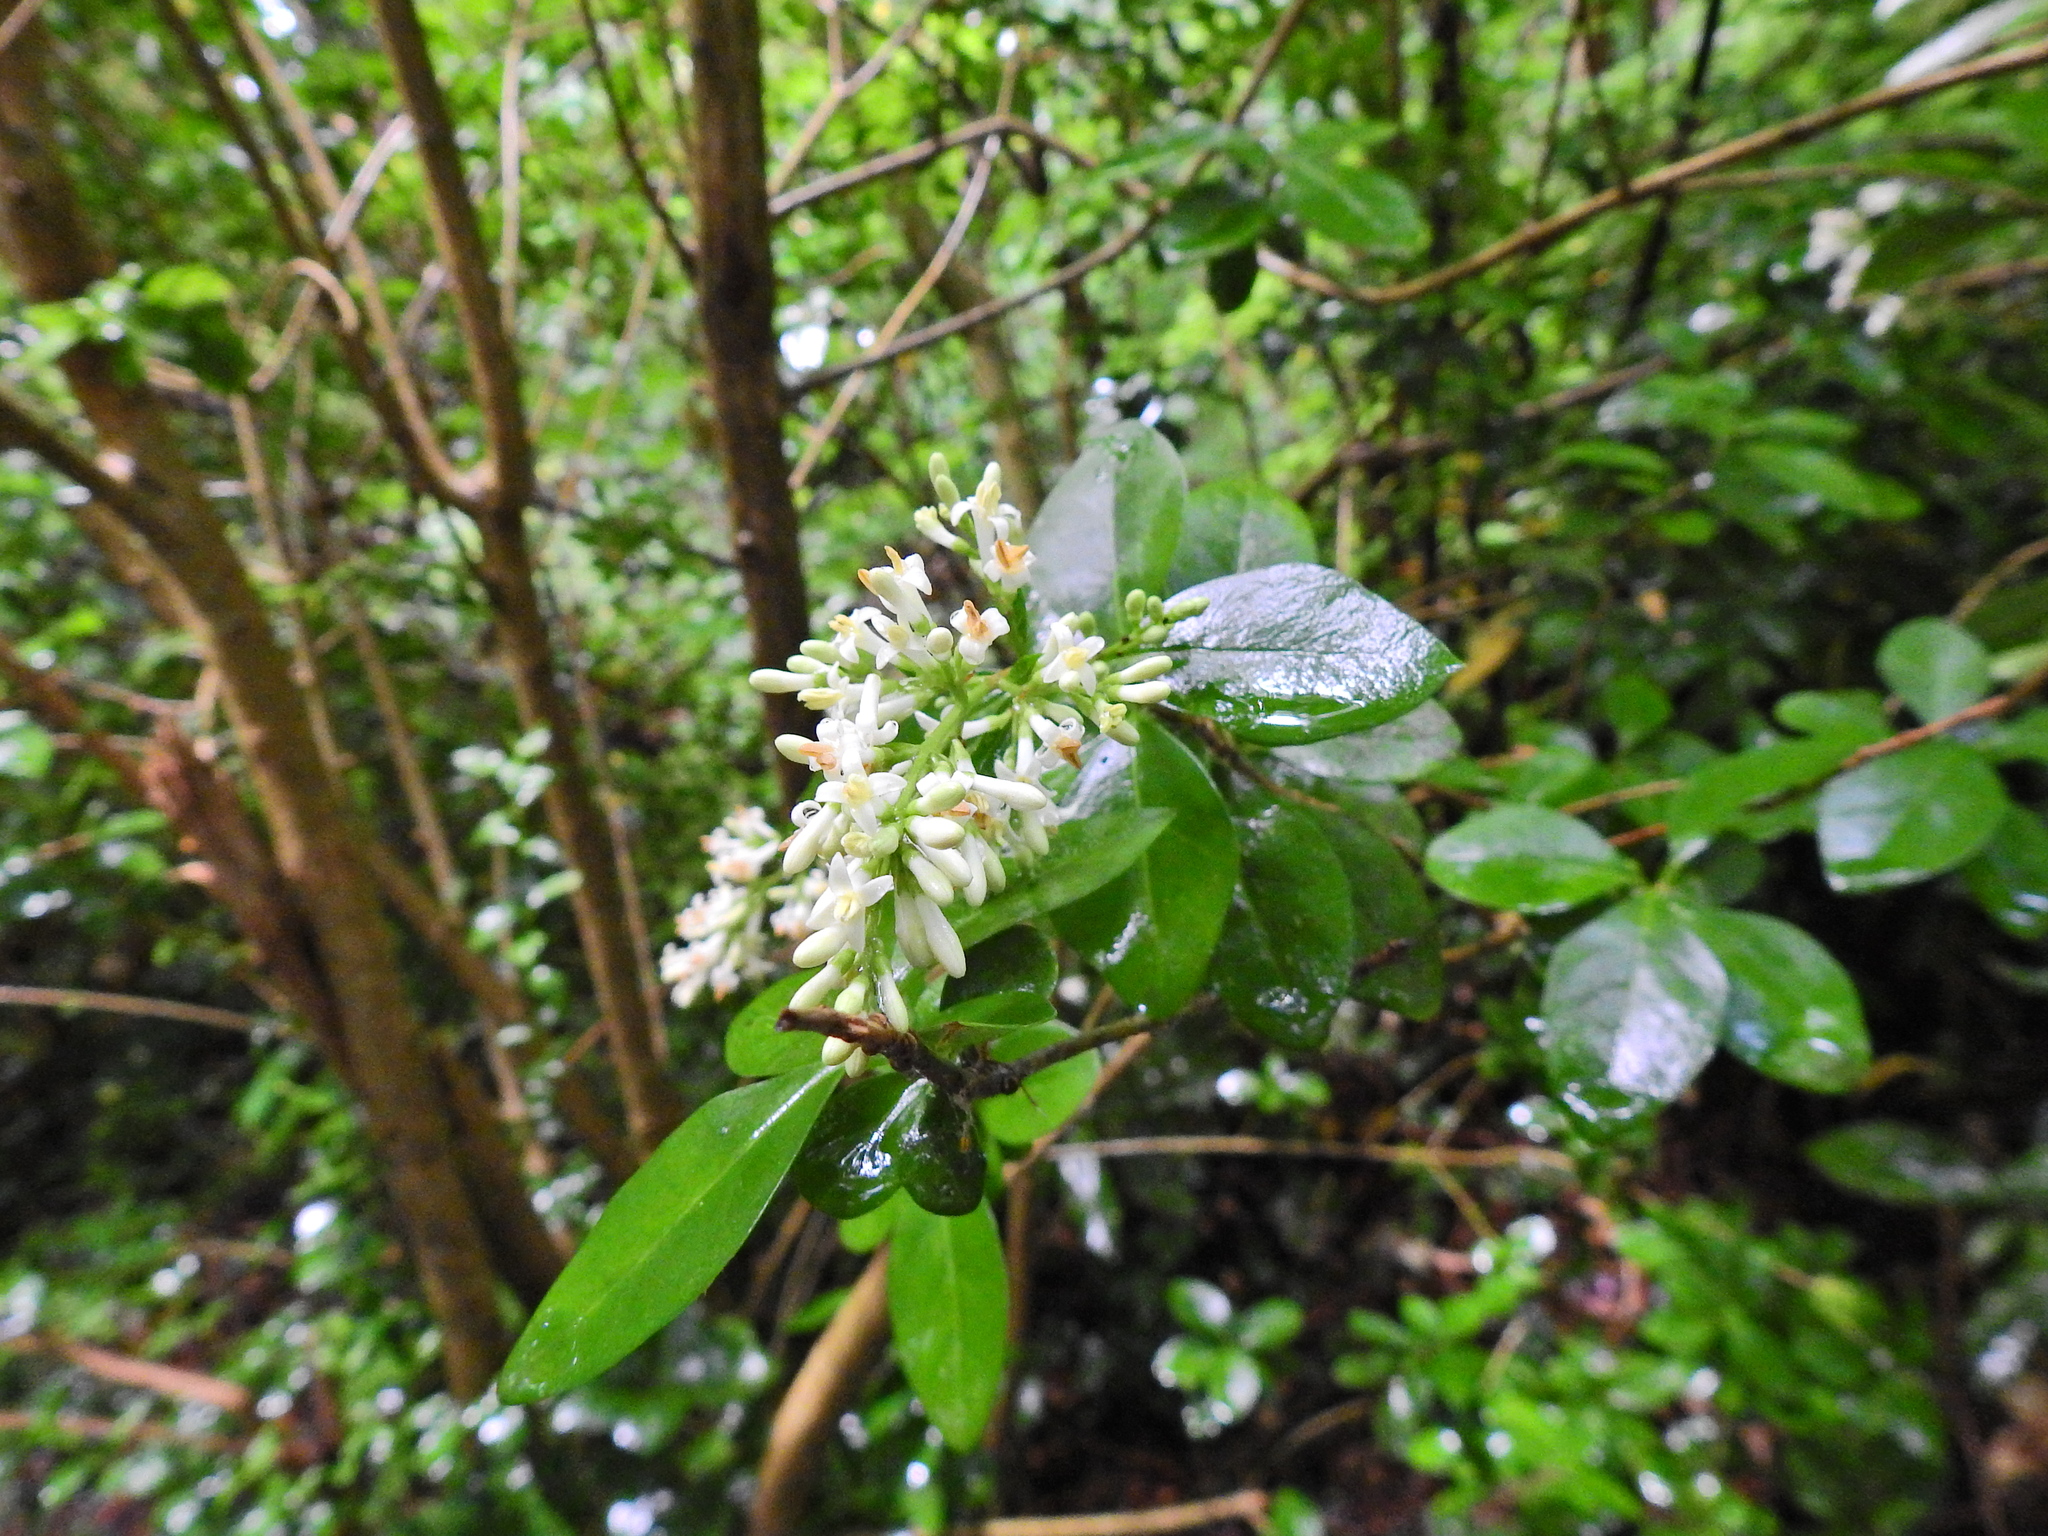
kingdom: Plantae
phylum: Tracheophyta
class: Magnoliopsida
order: Lamiales
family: Oleaceae
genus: Ligustrum
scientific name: Ligustrum ovalifolium
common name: California privet
